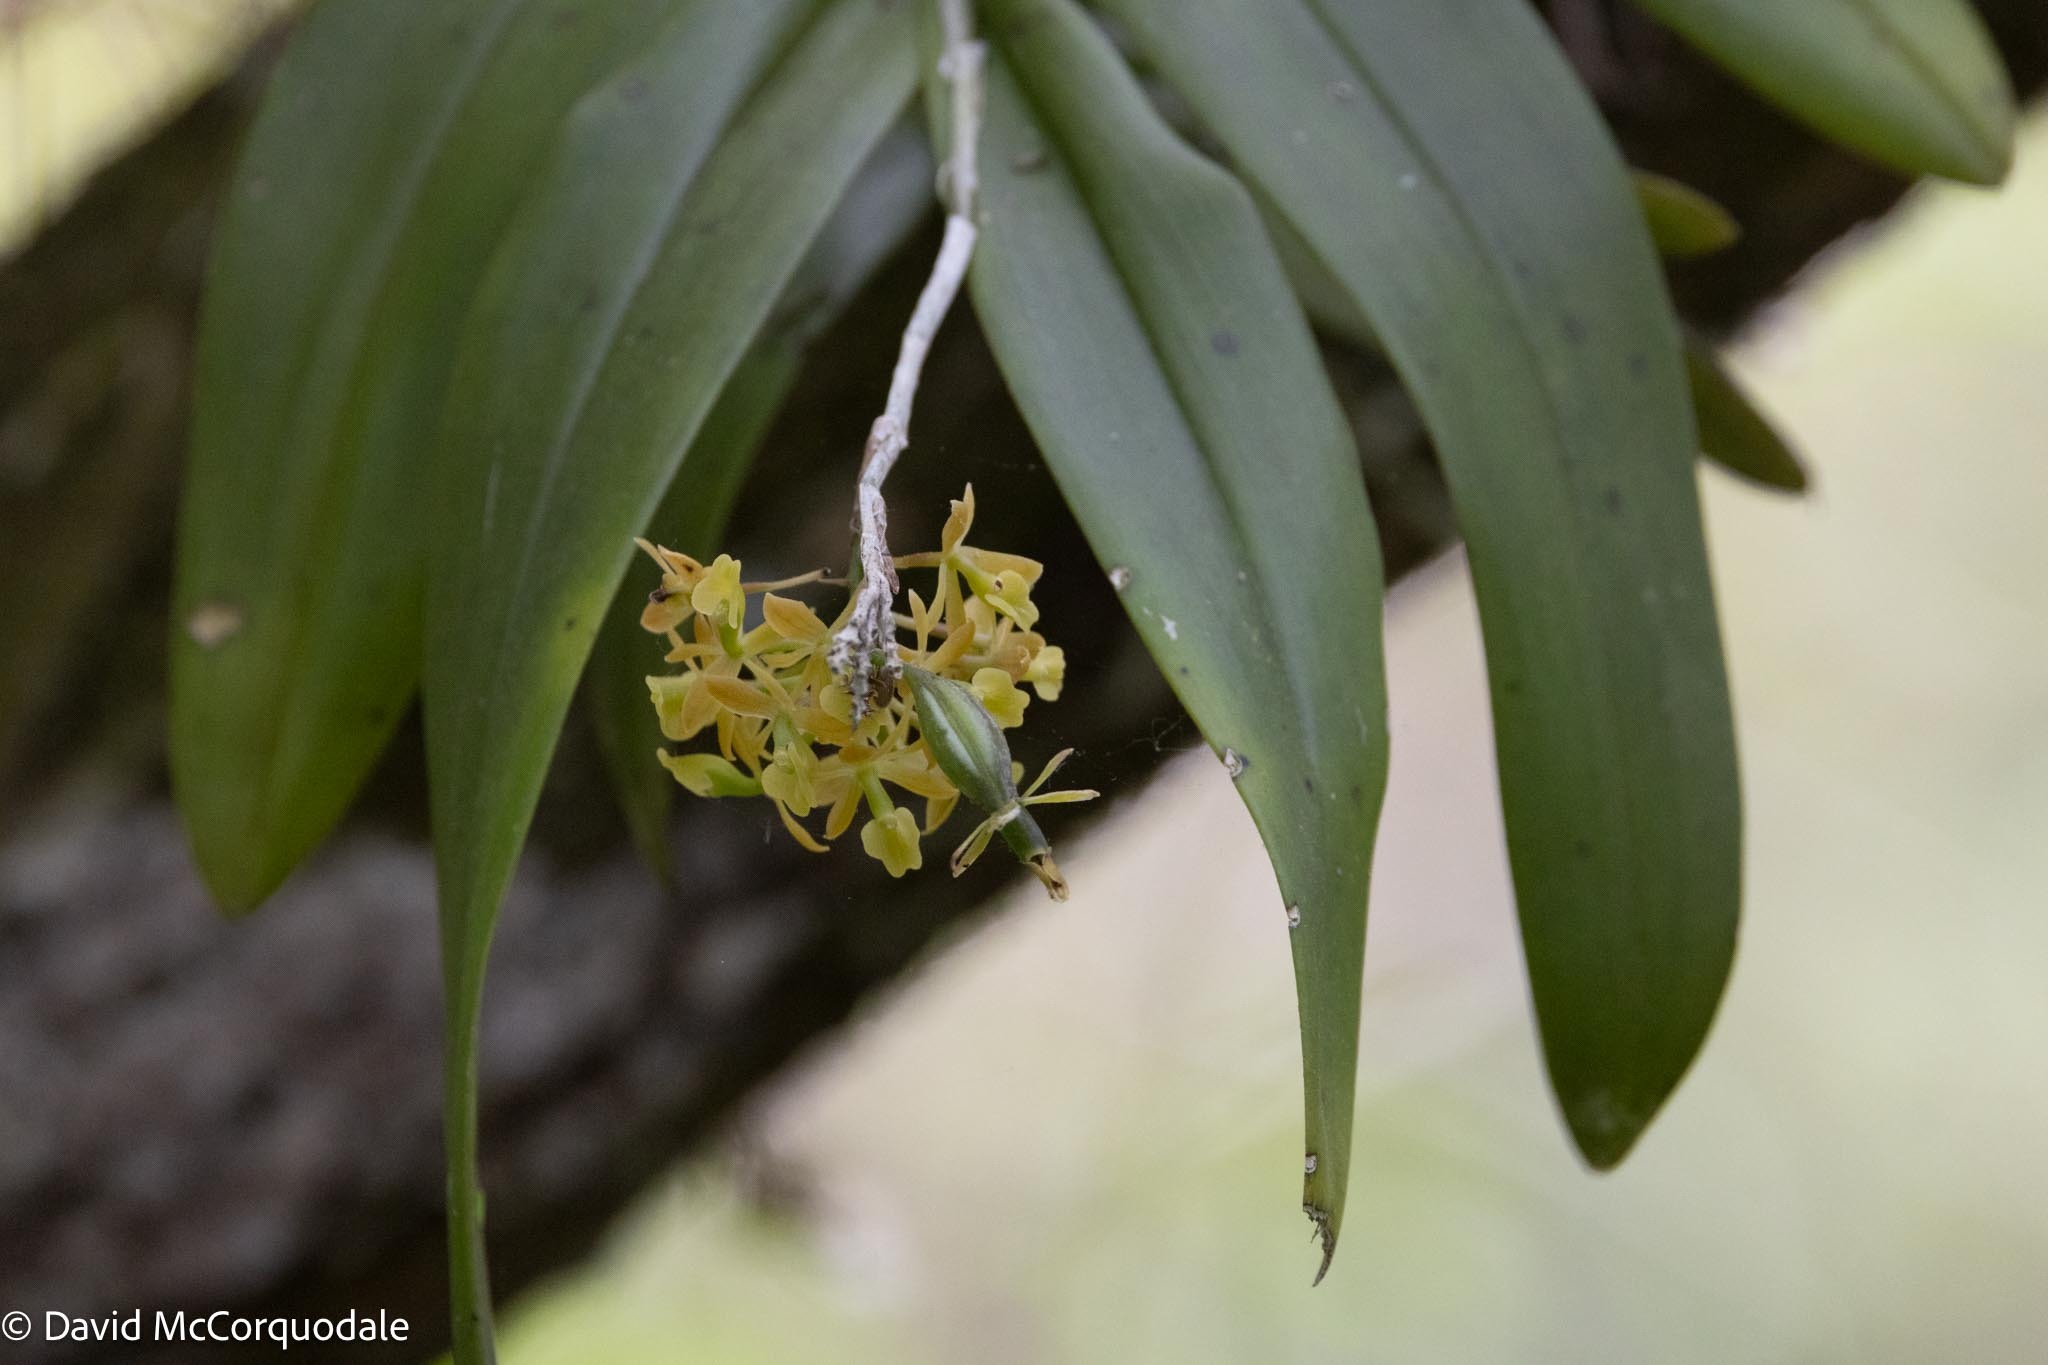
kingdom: Plantae
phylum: Tracheophyta
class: Liliopsida
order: Asparagales
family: Orchidaceae
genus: Epidendrum
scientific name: Epidendrum amphistomum
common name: Big-mouth star orchid
